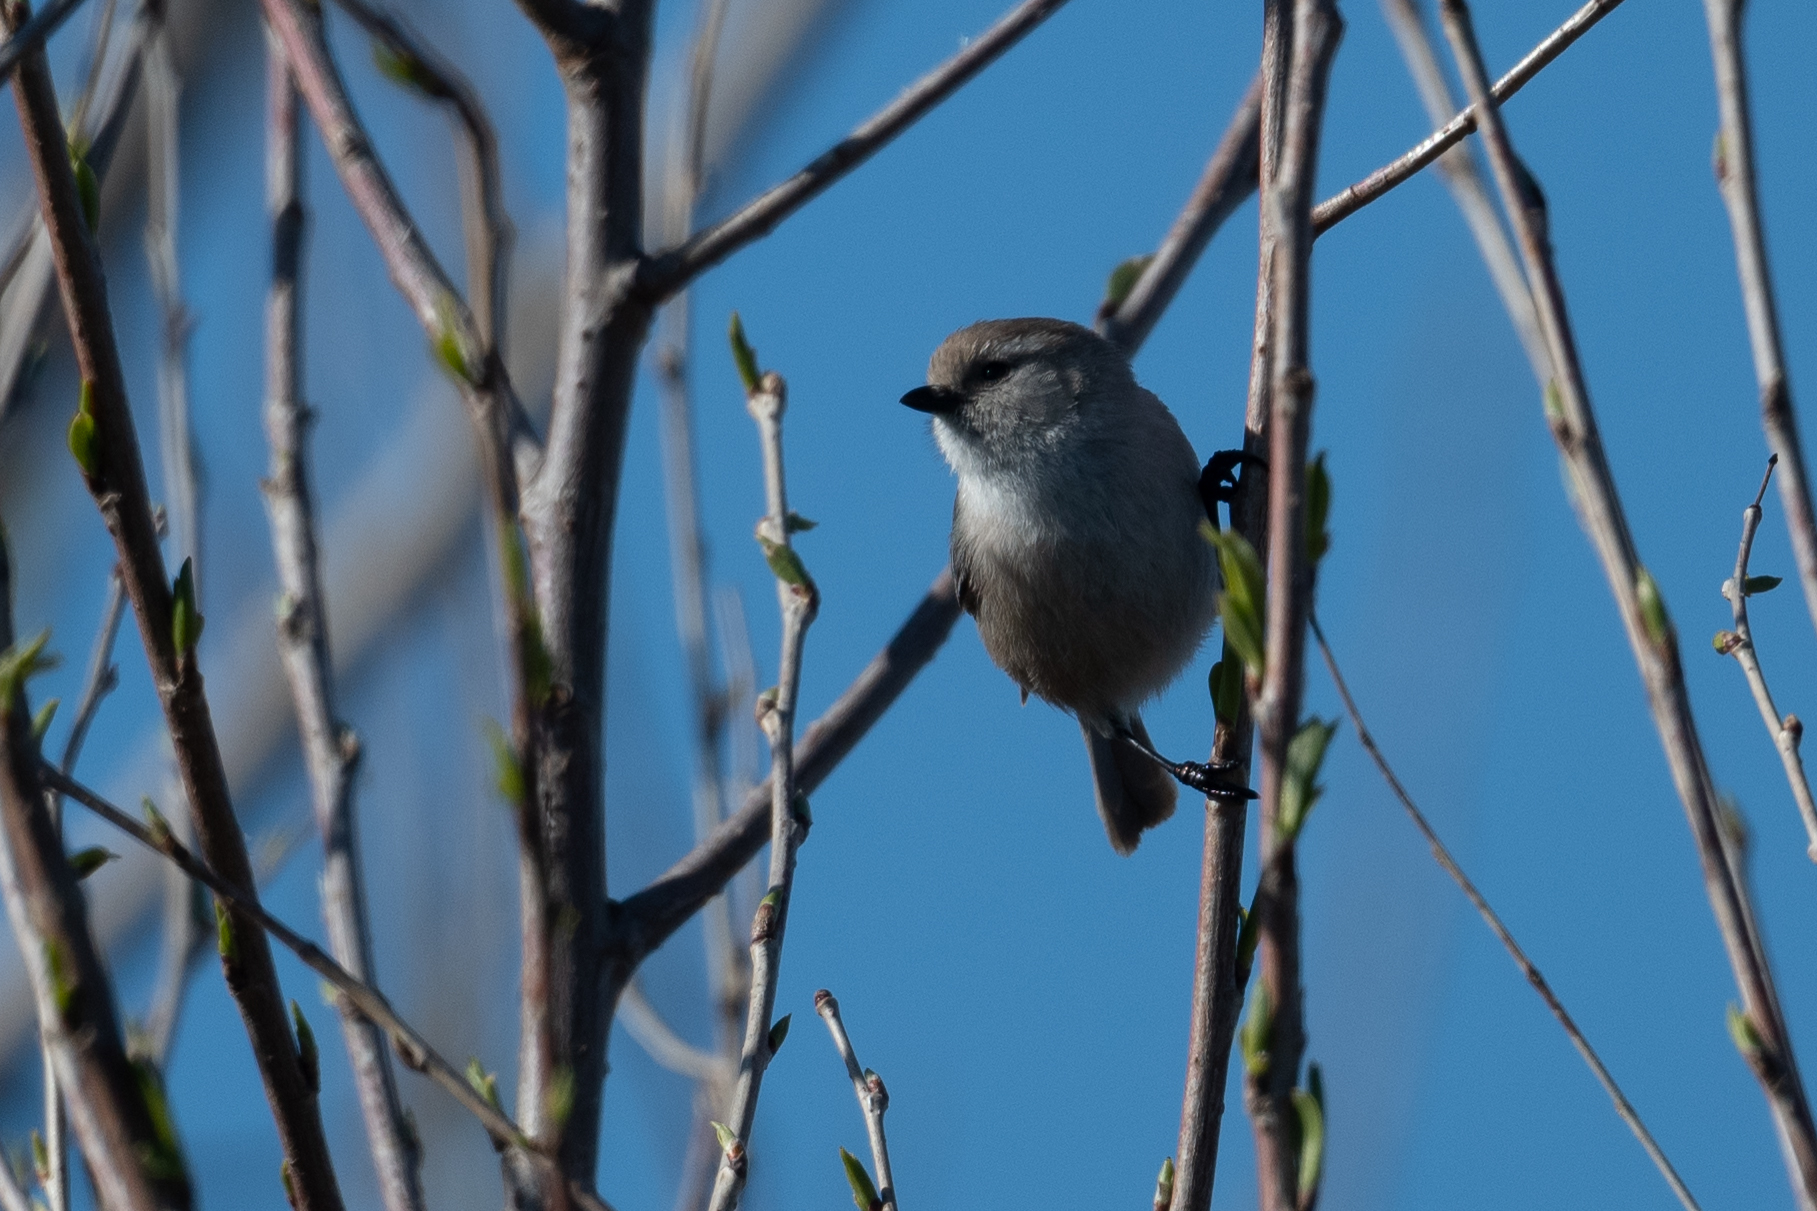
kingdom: Animalia
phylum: Chordata
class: Aves
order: Passeriformes
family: Aegithalidae
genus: Psaltriparus
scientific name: Psaltriparus minimus
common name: American bushtit
